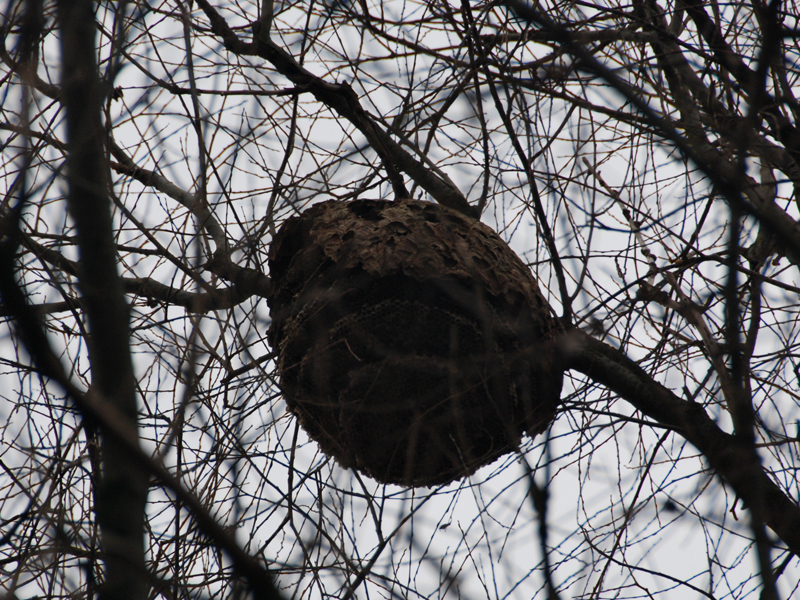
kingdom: Animalia
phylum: Arthropoda
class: Insecta
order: Hymenoptera
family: Vespidae
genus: Vespa
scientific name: Vespa velutina
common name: Asian hornet
